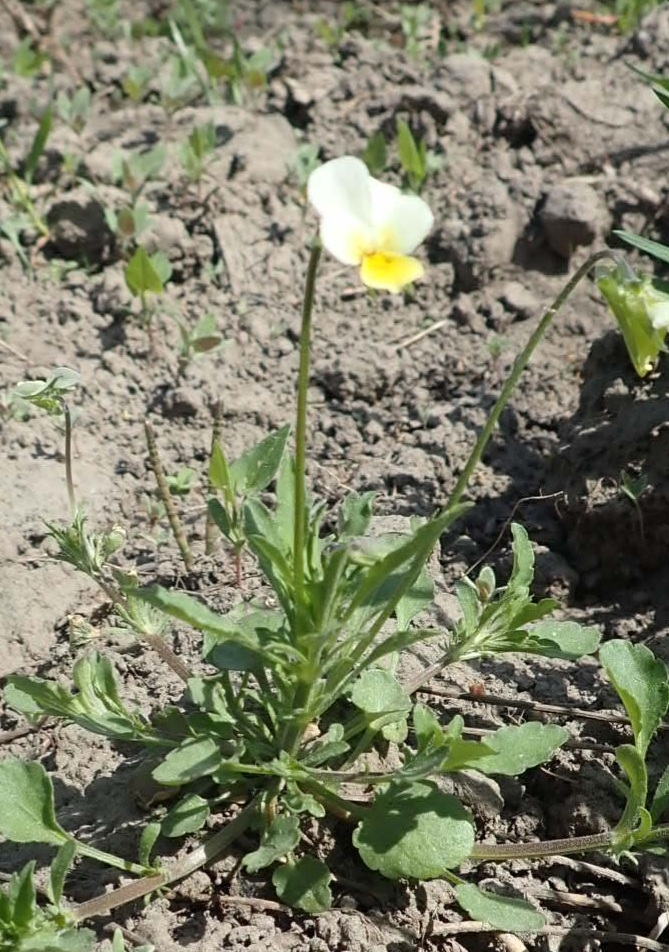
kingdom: Plantae
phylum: Tracheophyta
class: Magnoliopsida
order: Malpighiales
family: Violaceae
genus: Viola
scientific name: Viola arvensis
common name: Field pansy
